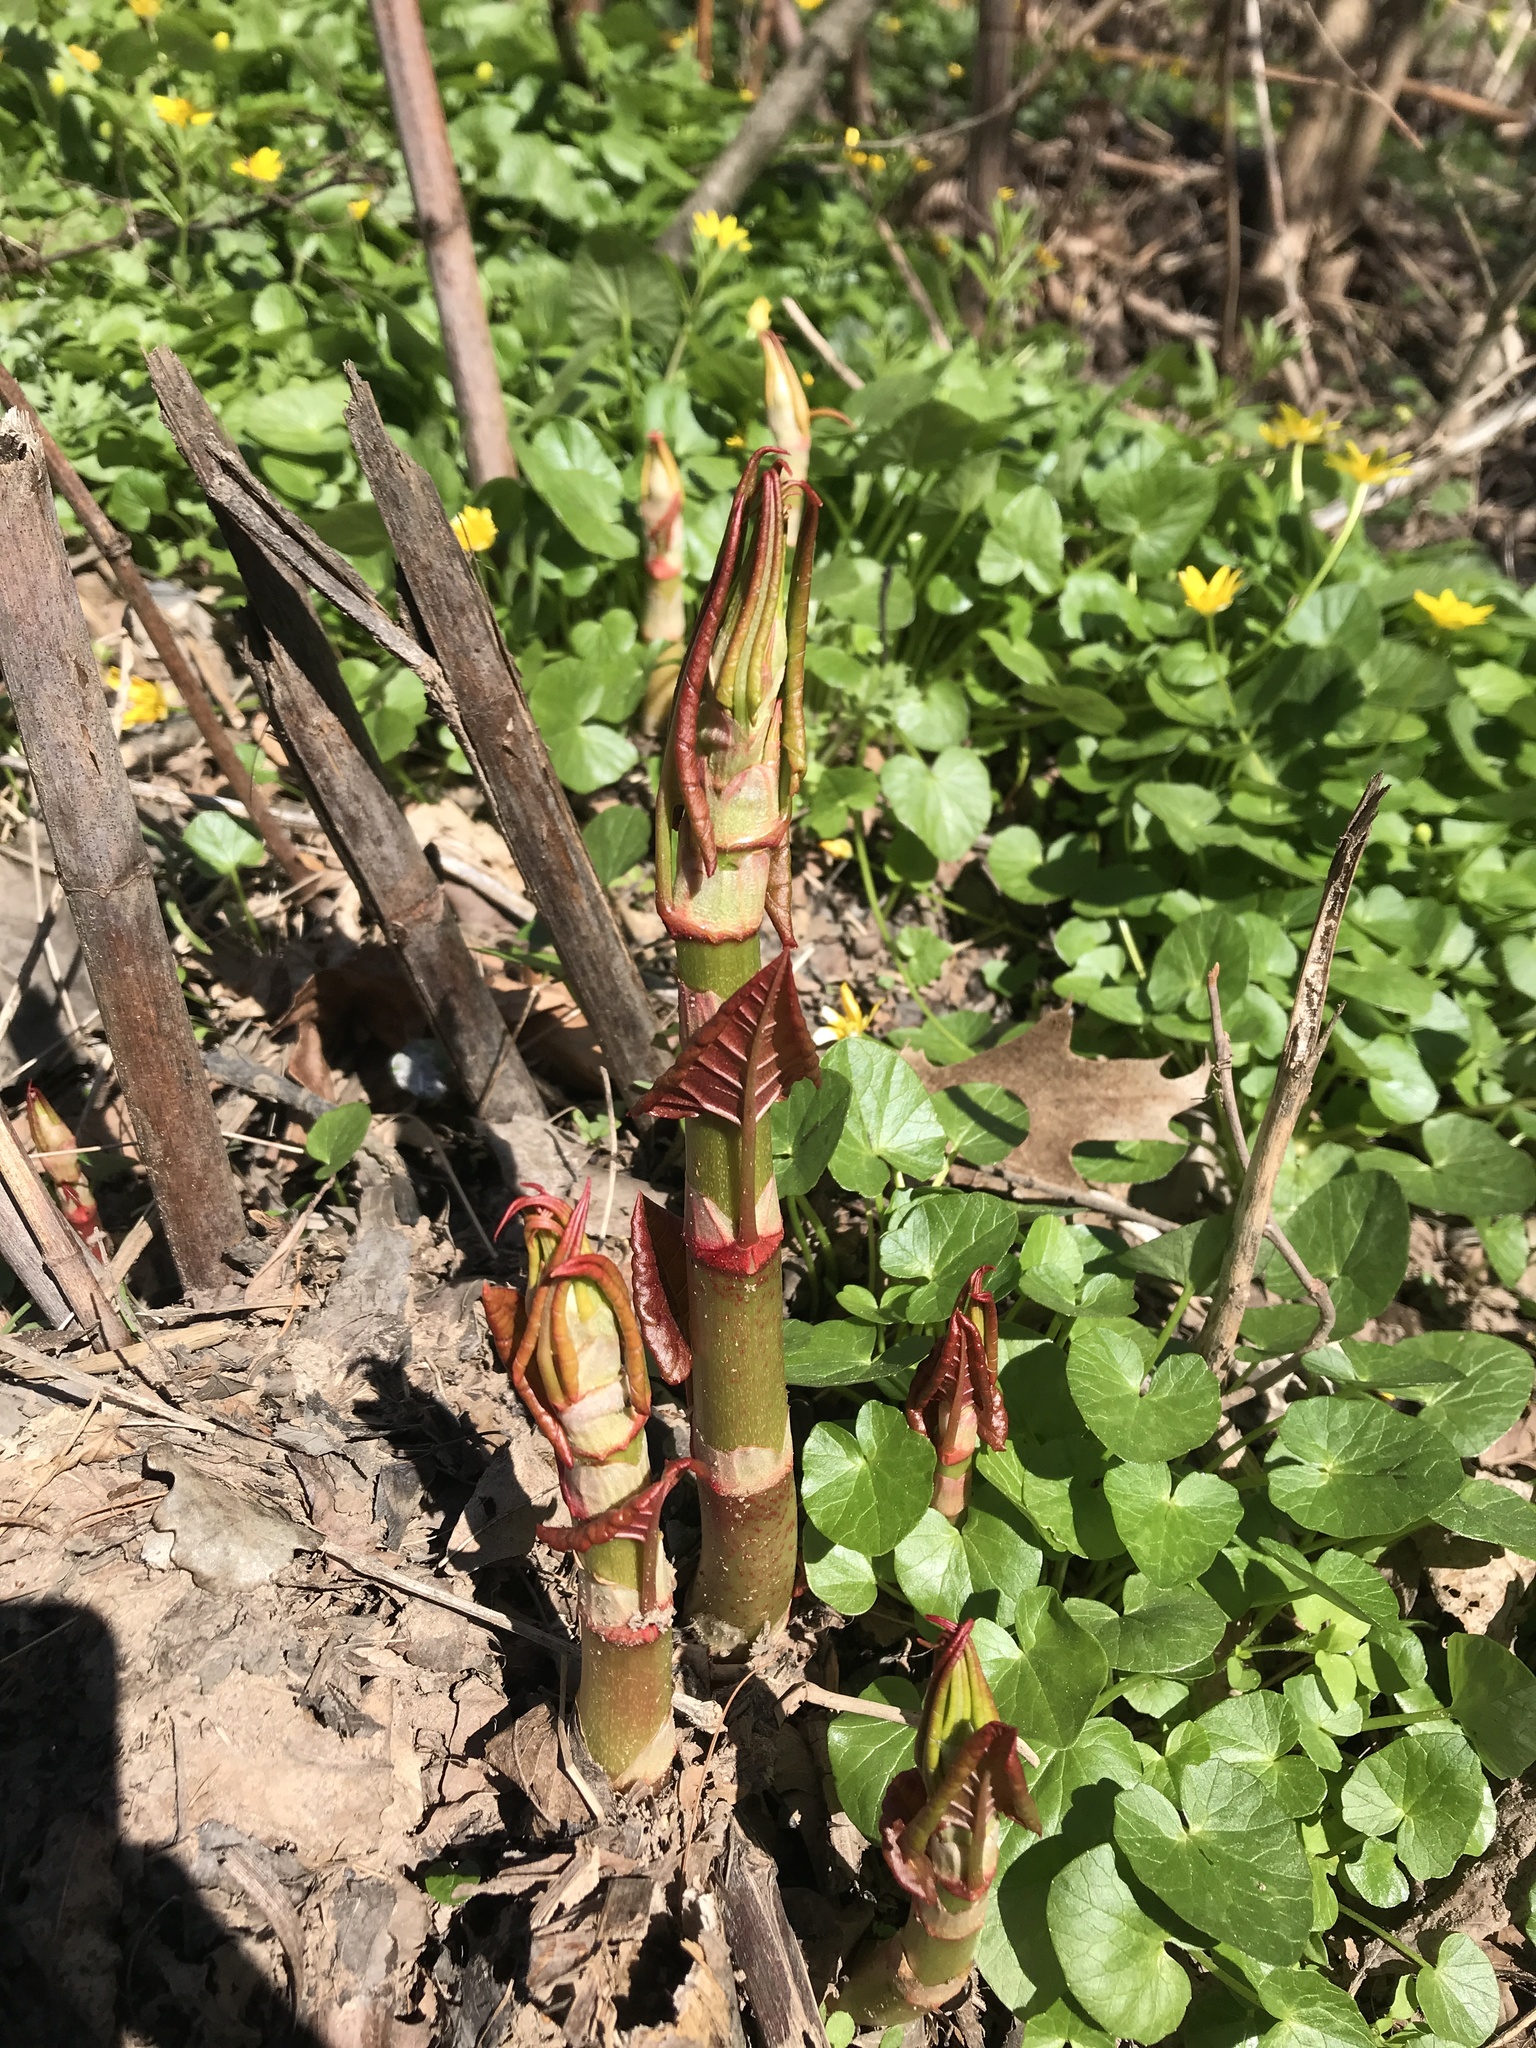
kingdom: Plantae
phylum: Tracheophyta
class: Magnoliopsida
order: Caryophyllales
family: Polygonaceae
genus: Reynoutria
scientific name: Reynoutria japonica
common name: Japanese knotweed
